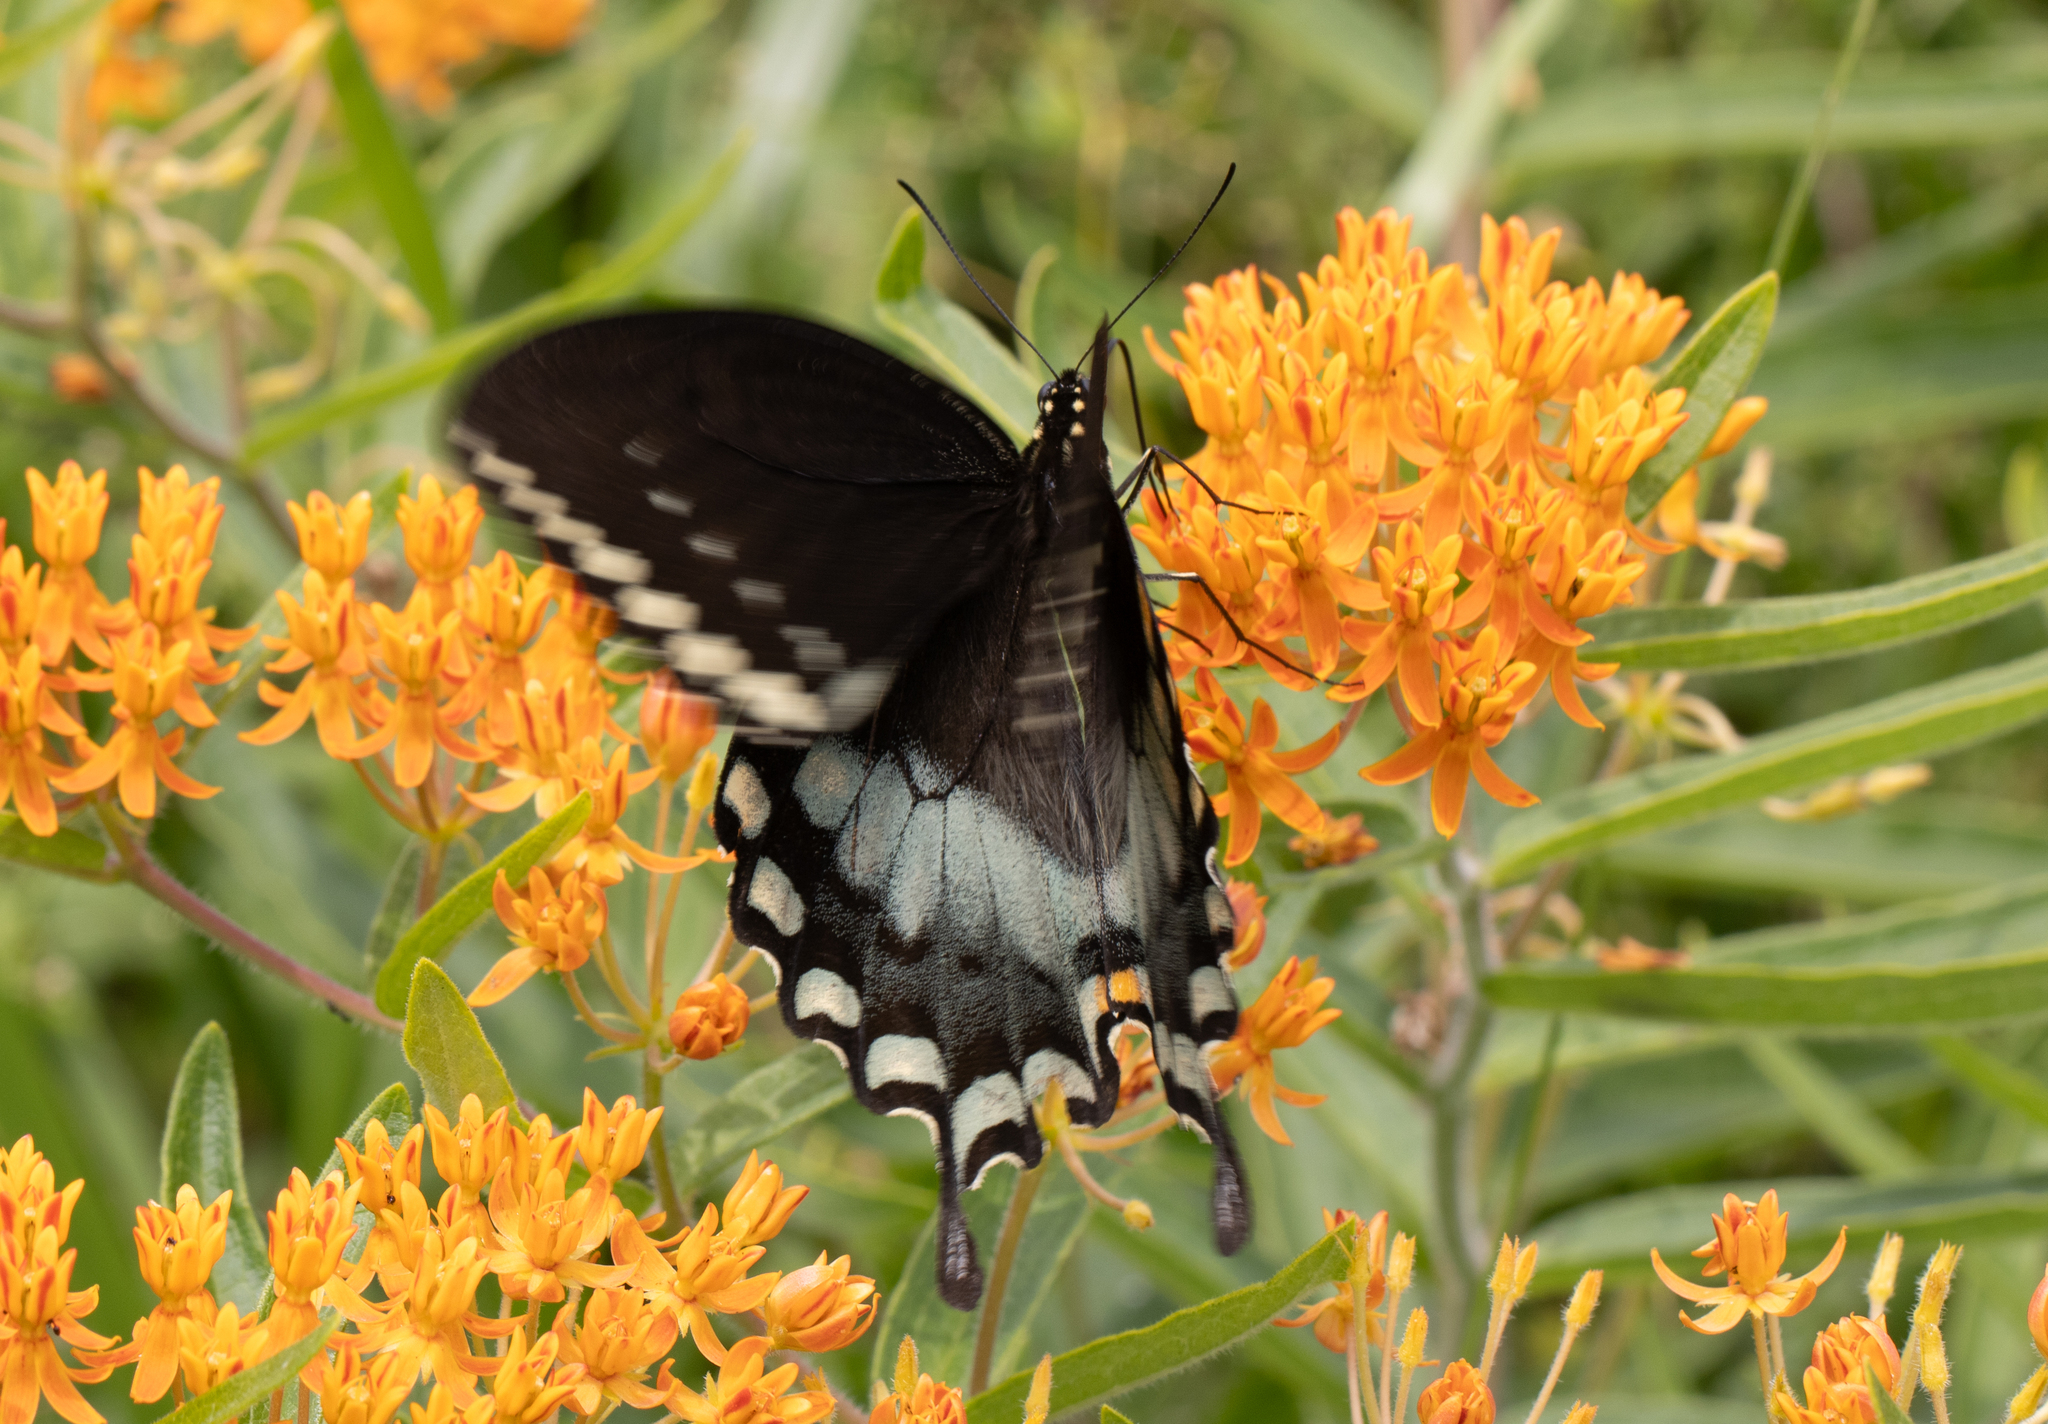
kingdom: Animalia
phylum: Arthropoda
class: Insecta
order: Lepidoptera
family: Papilionidae
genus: Papilio
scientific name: Papilio troilus
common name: Spicebush swallowtail
